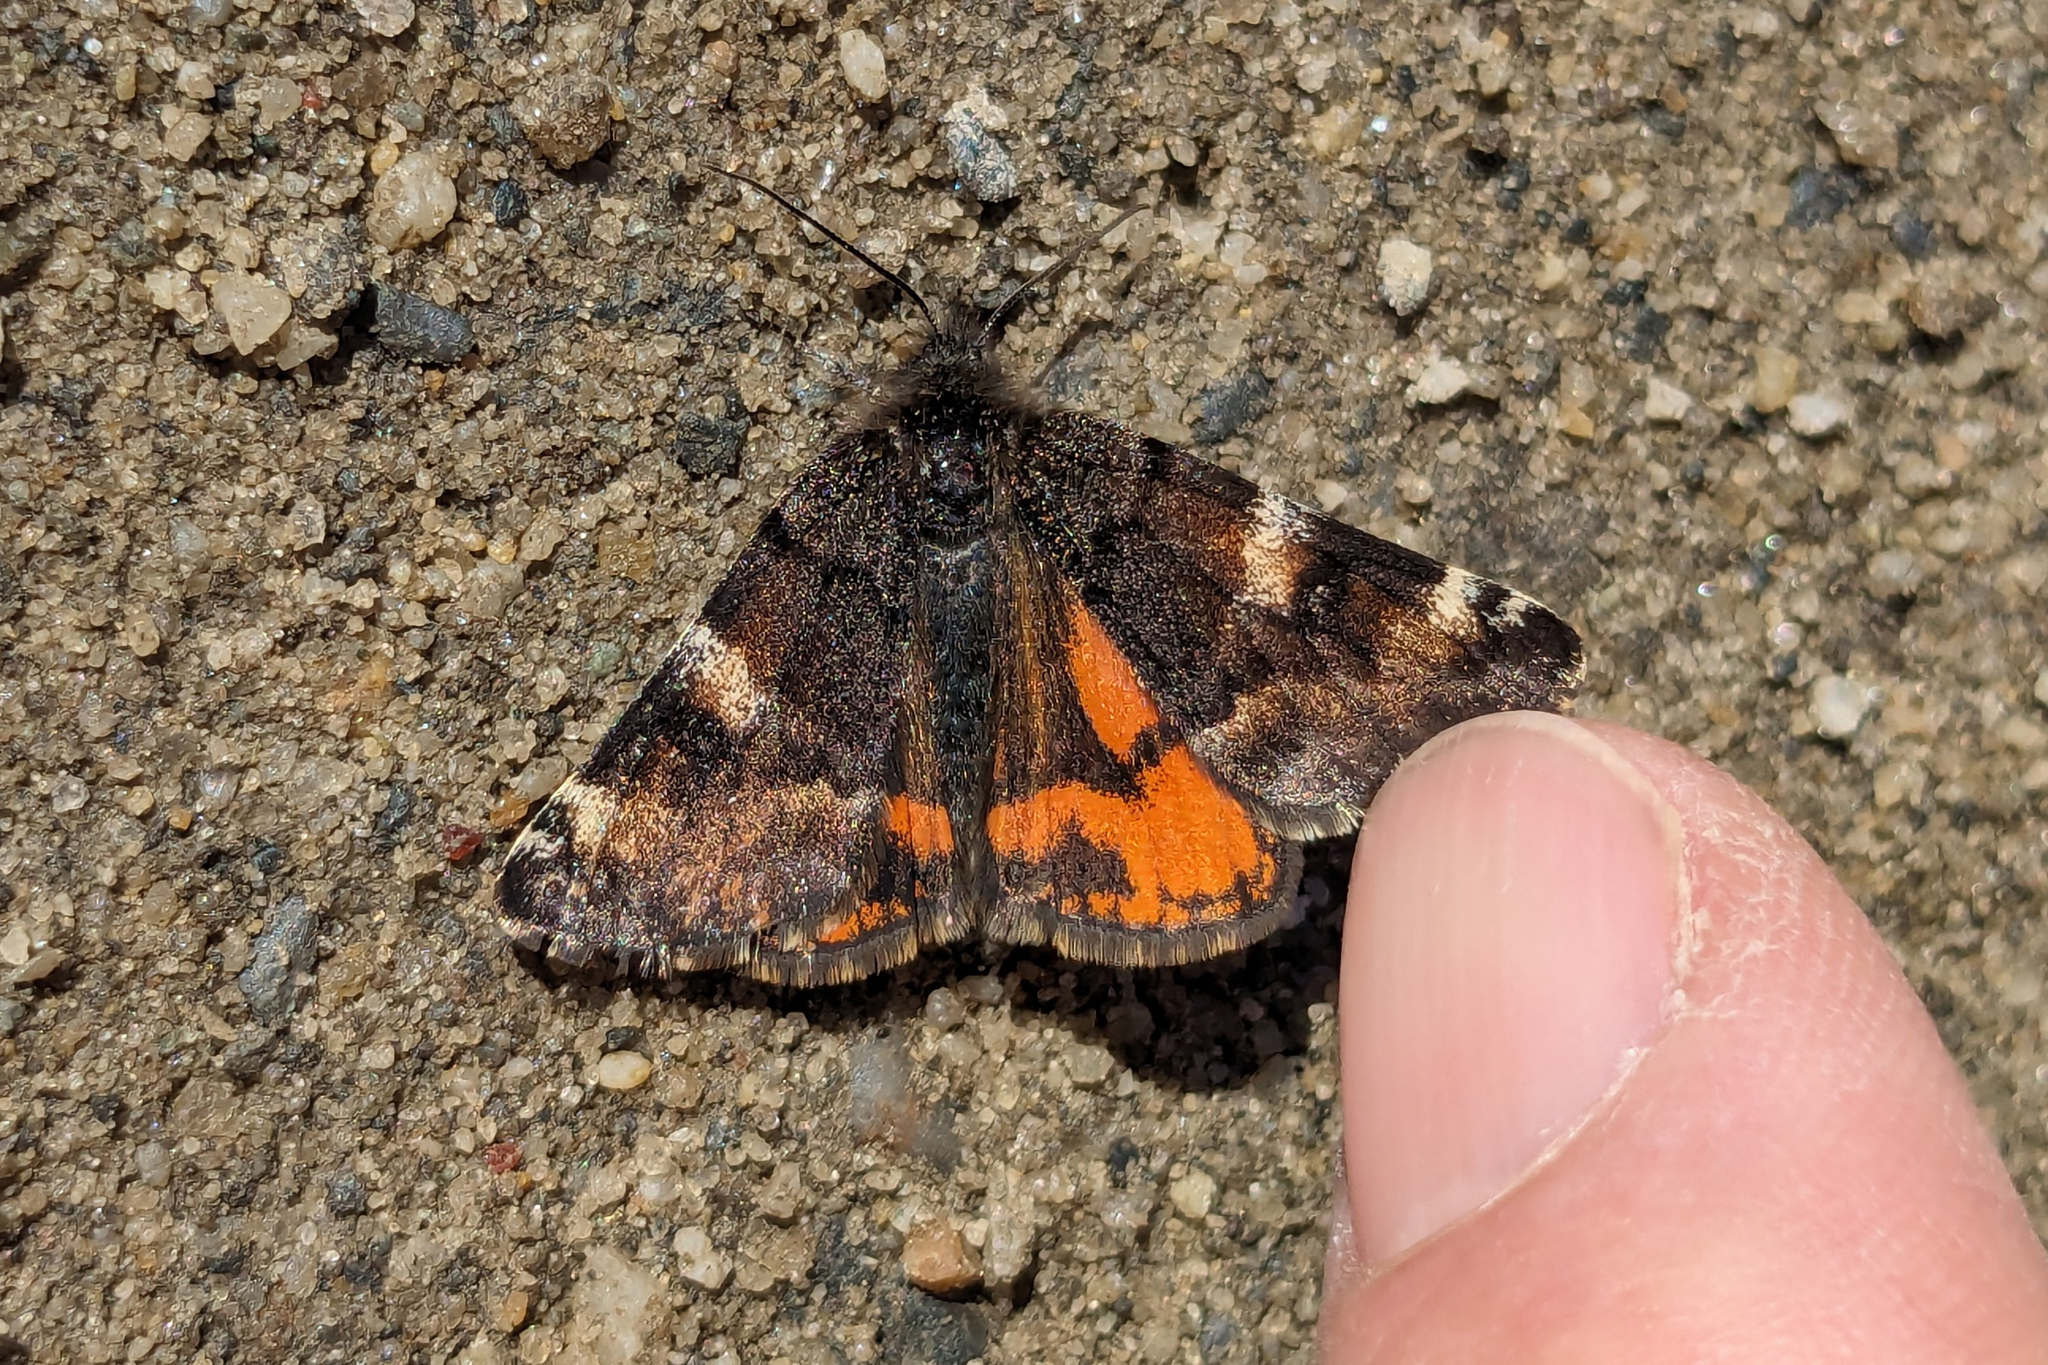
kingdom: Animalia
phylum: Arthropoda
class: Insecta
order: Lepidoptera
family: Geometridae
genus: Archiearis
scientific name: Archiearis infans
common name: First born geometer
